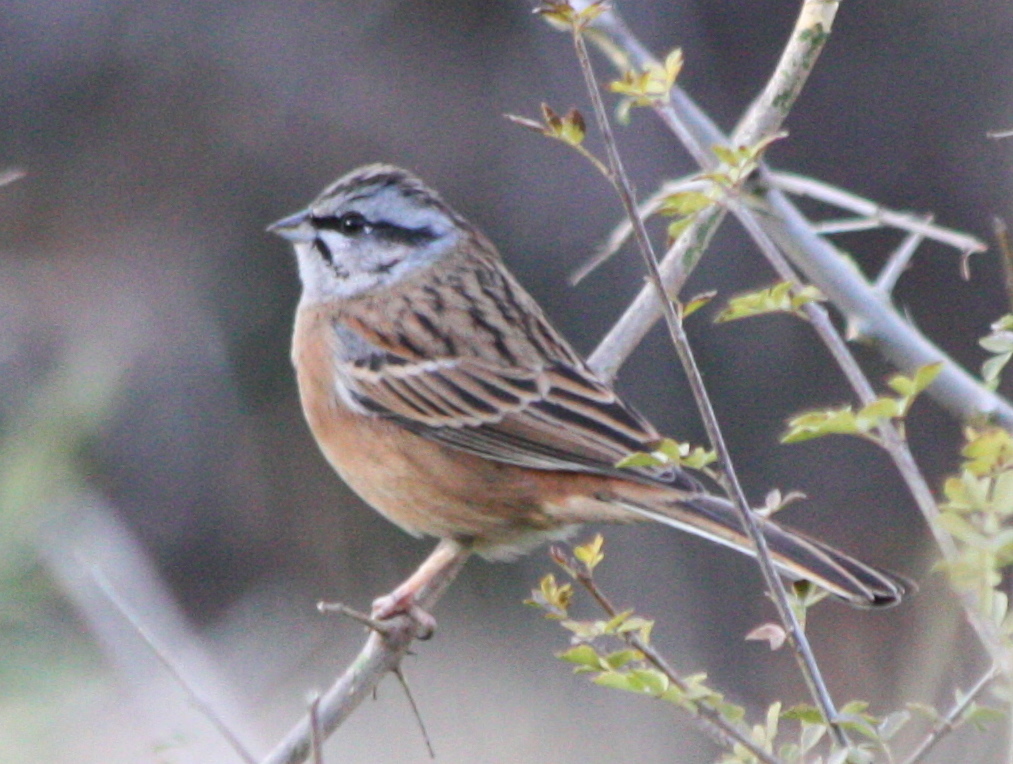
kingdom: Animalia
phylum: Chordata
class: Aves
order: Passeriformes
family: Emberizidae
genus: Emberiza
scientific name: Emberiza cia
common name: Rock bunting
